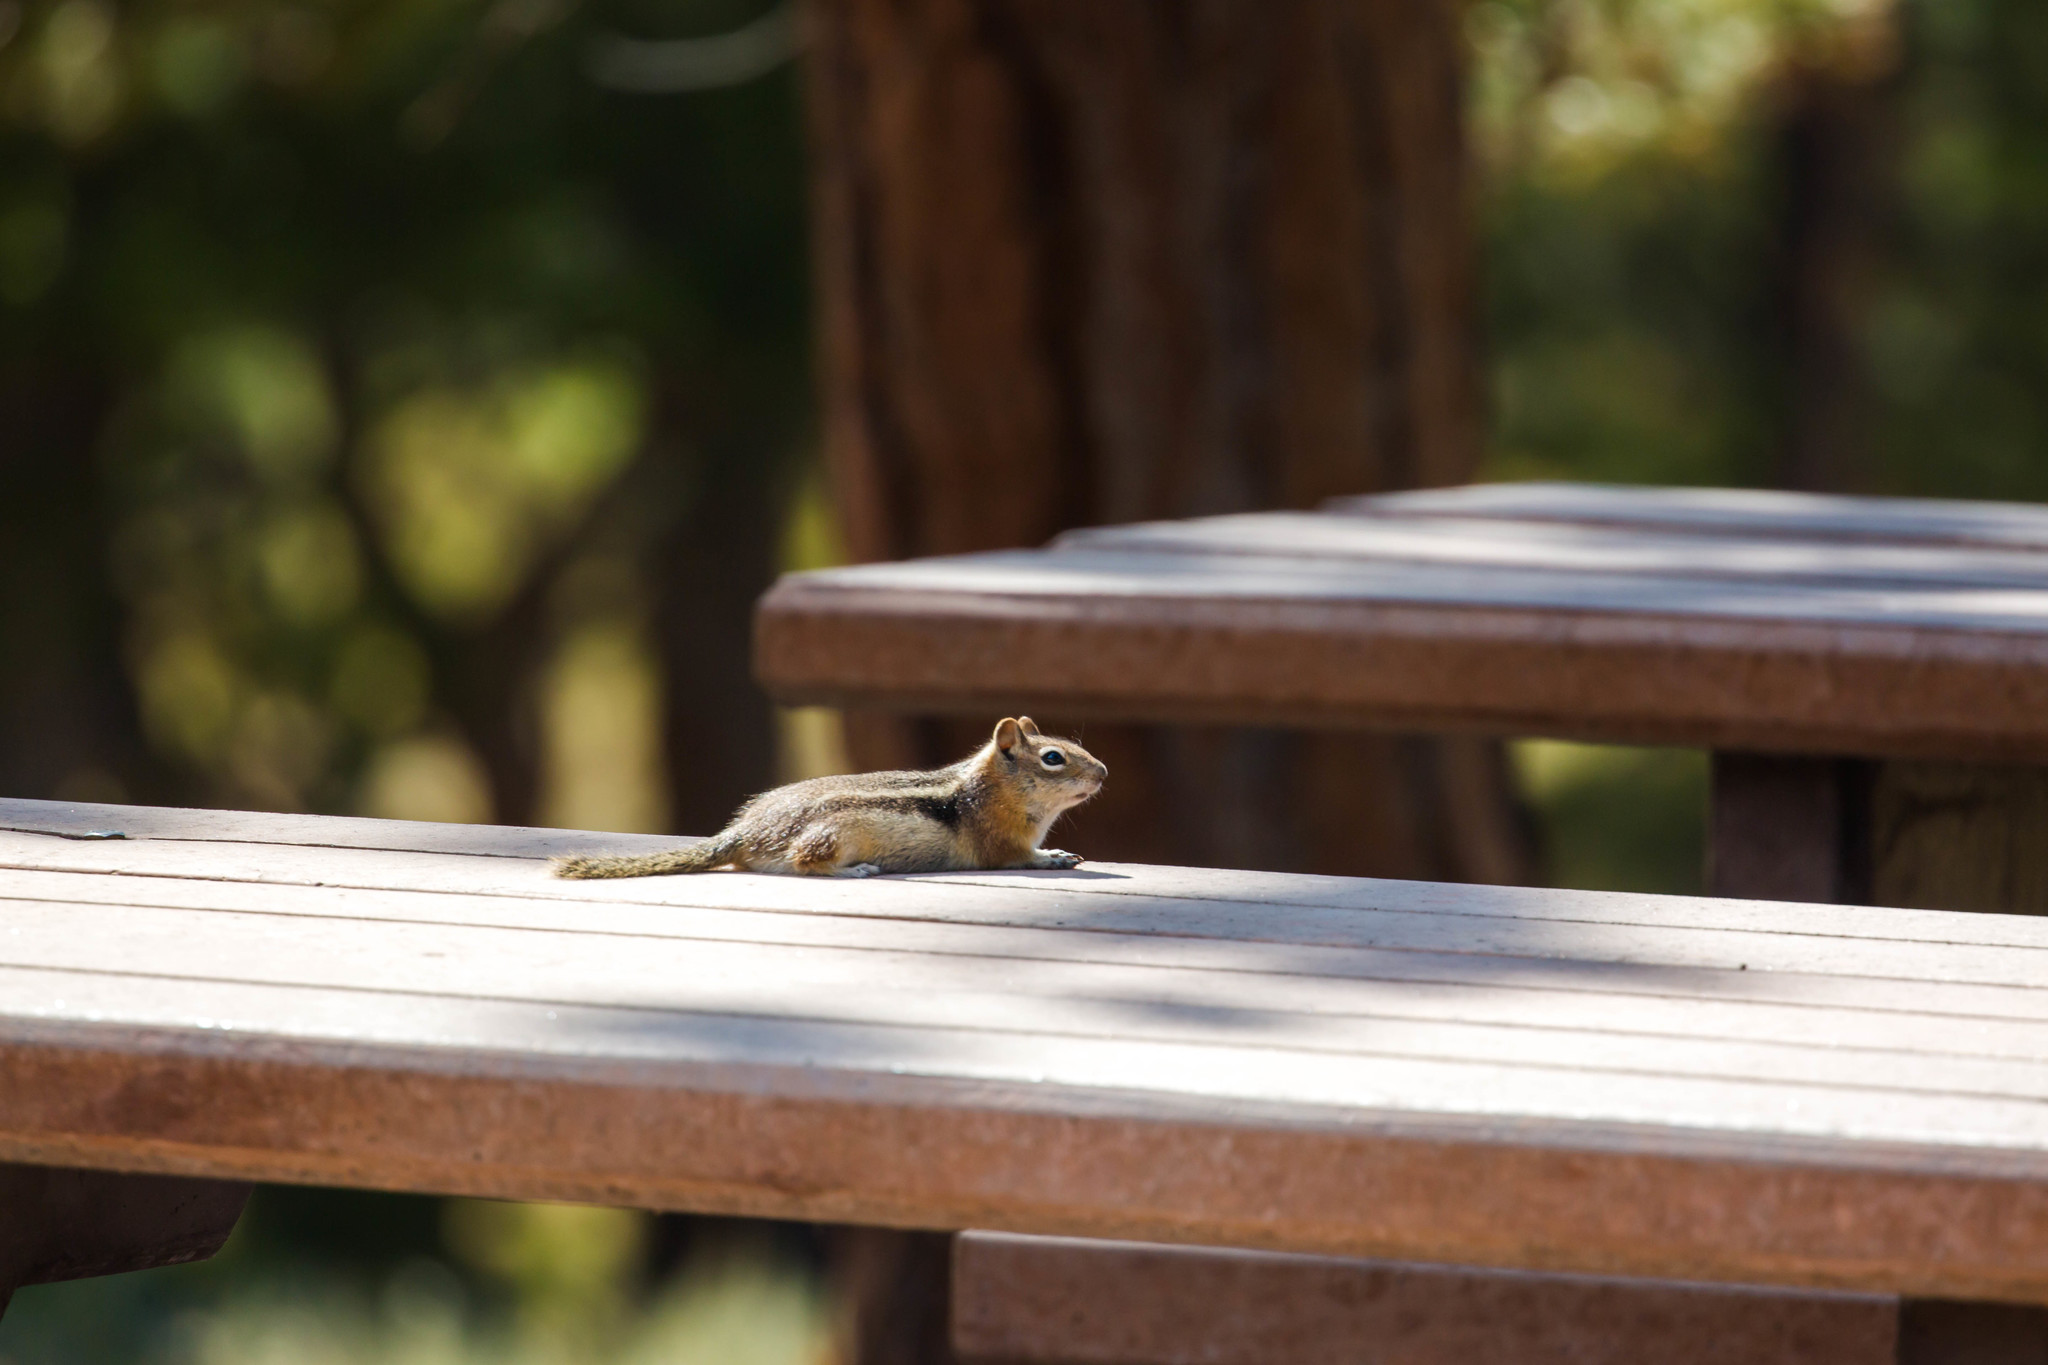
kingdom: Animalia
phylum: Chordata
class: Mammalia
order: Rodentia
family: Sciuridae
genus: Callospermophilus
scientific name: Callospermophilus lateralis
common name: Golden-mantled ground squirrel
